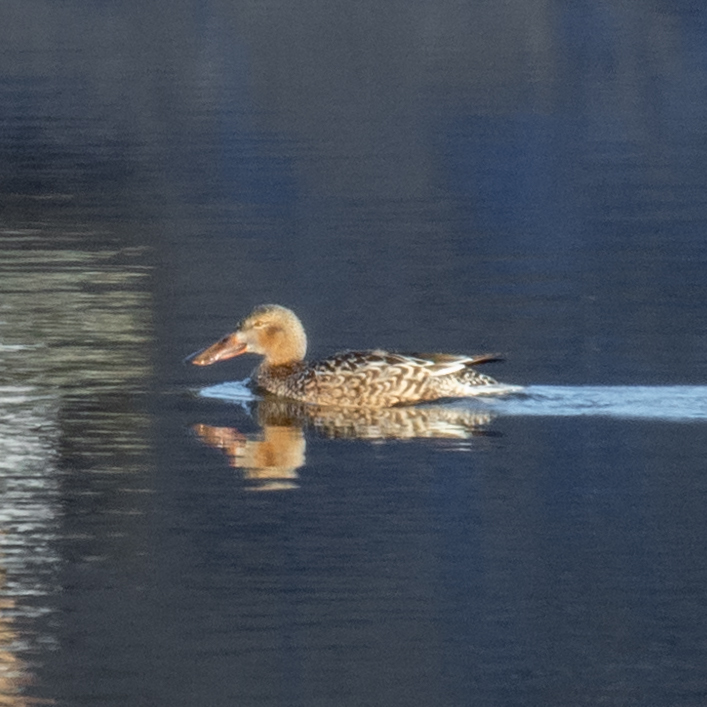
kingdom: Animalia
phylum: Chordata
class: Aves
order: Anseriformes
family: Anatidae
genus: Spatula
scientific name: Spatula clypeata
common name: Northern shoveler
